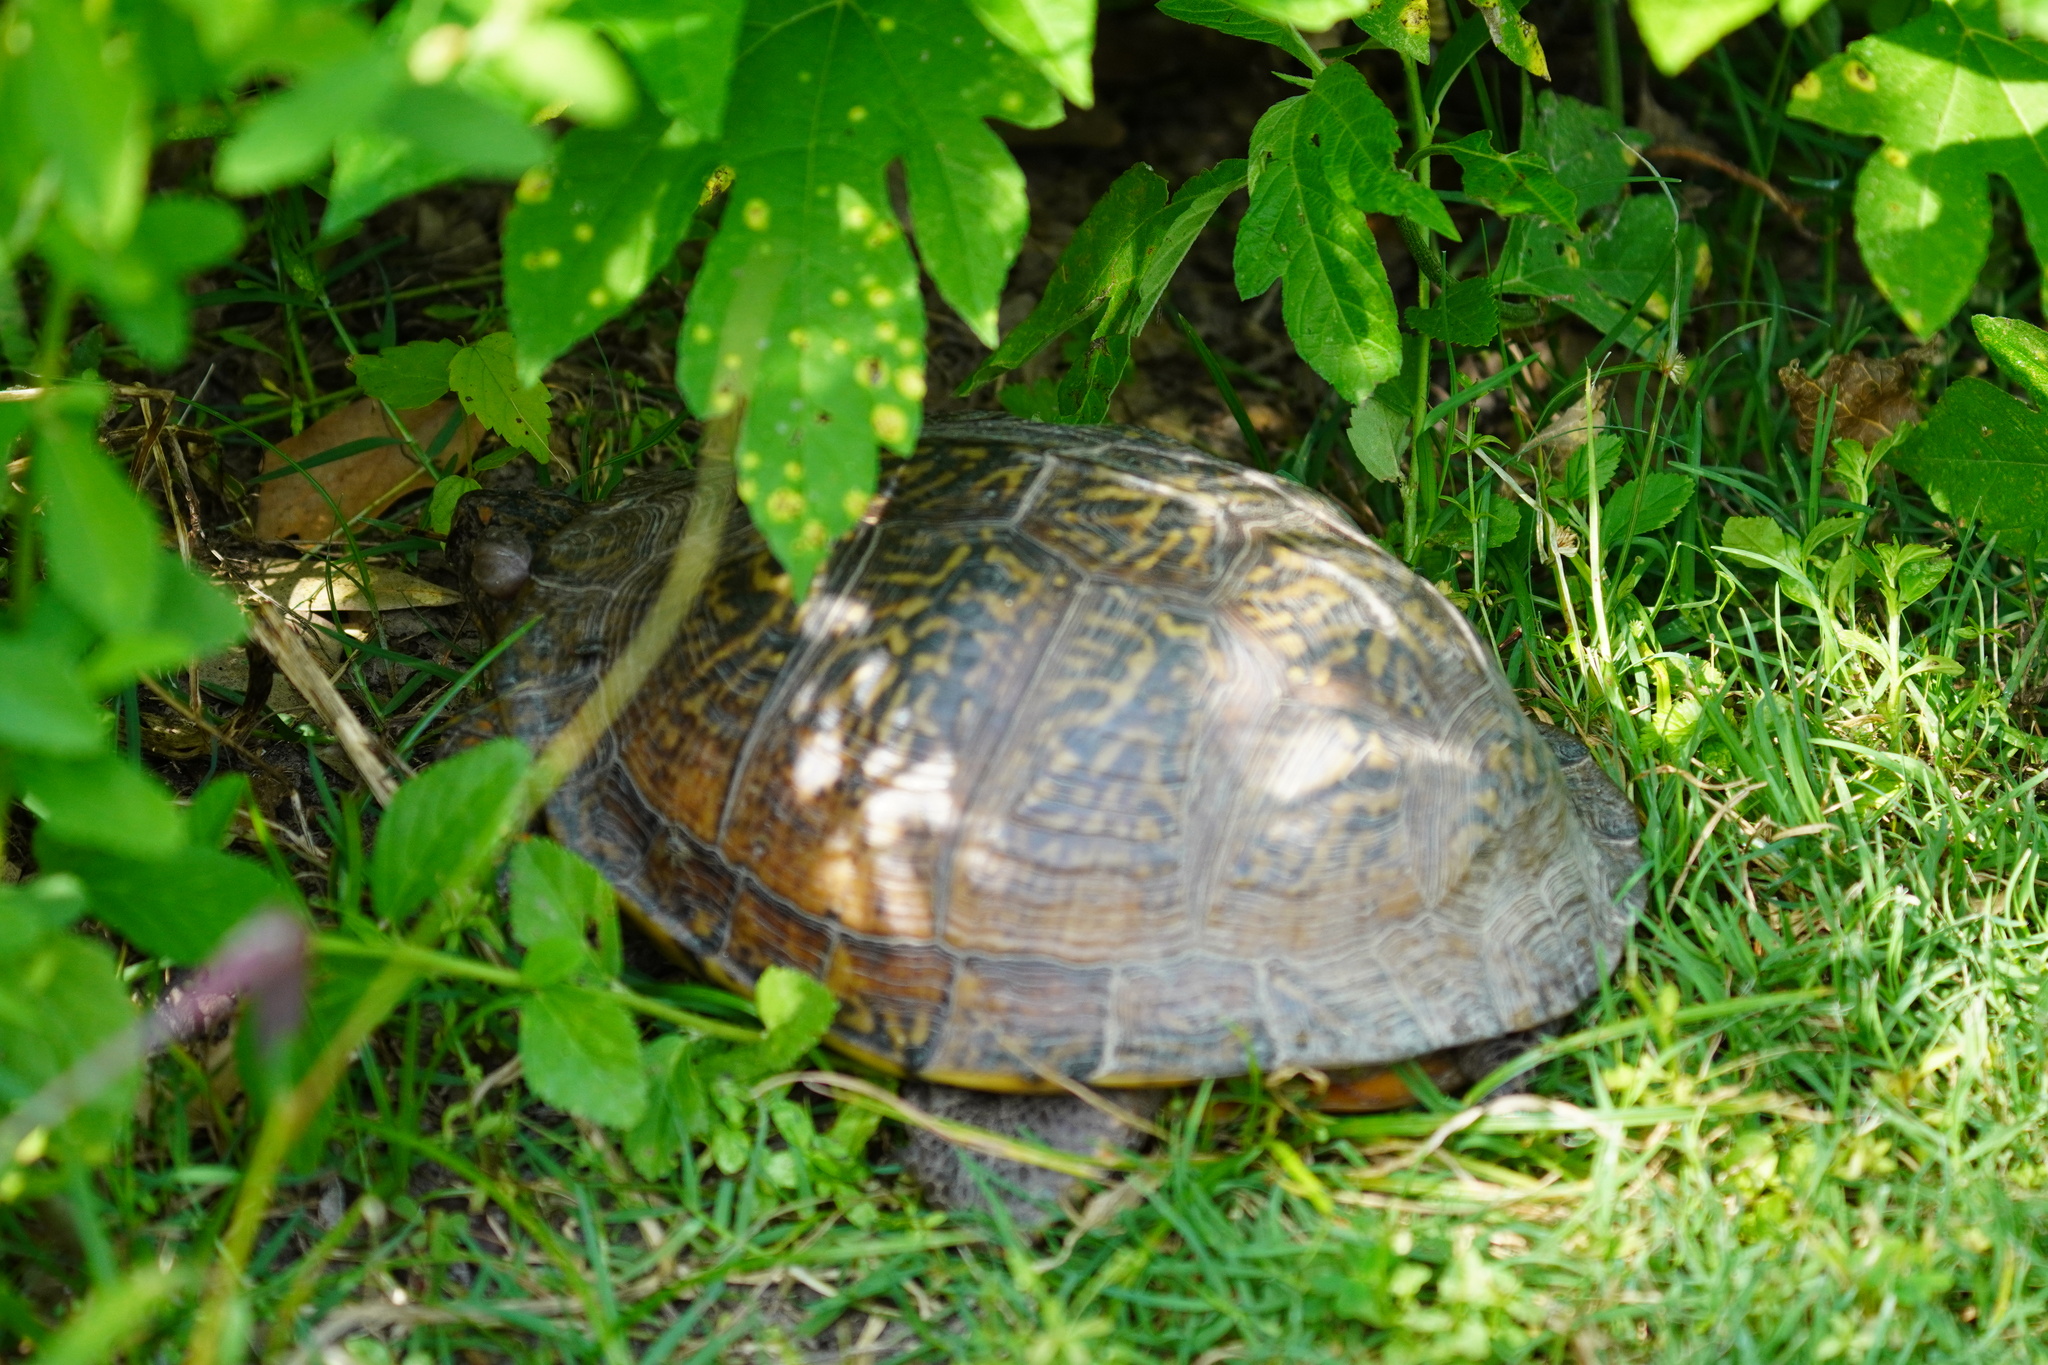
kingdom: Animalia
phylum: Chordata
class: Testudines
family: Emydidae
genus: Terrapene
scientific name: Terrapene carolina
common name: Common box turtle
